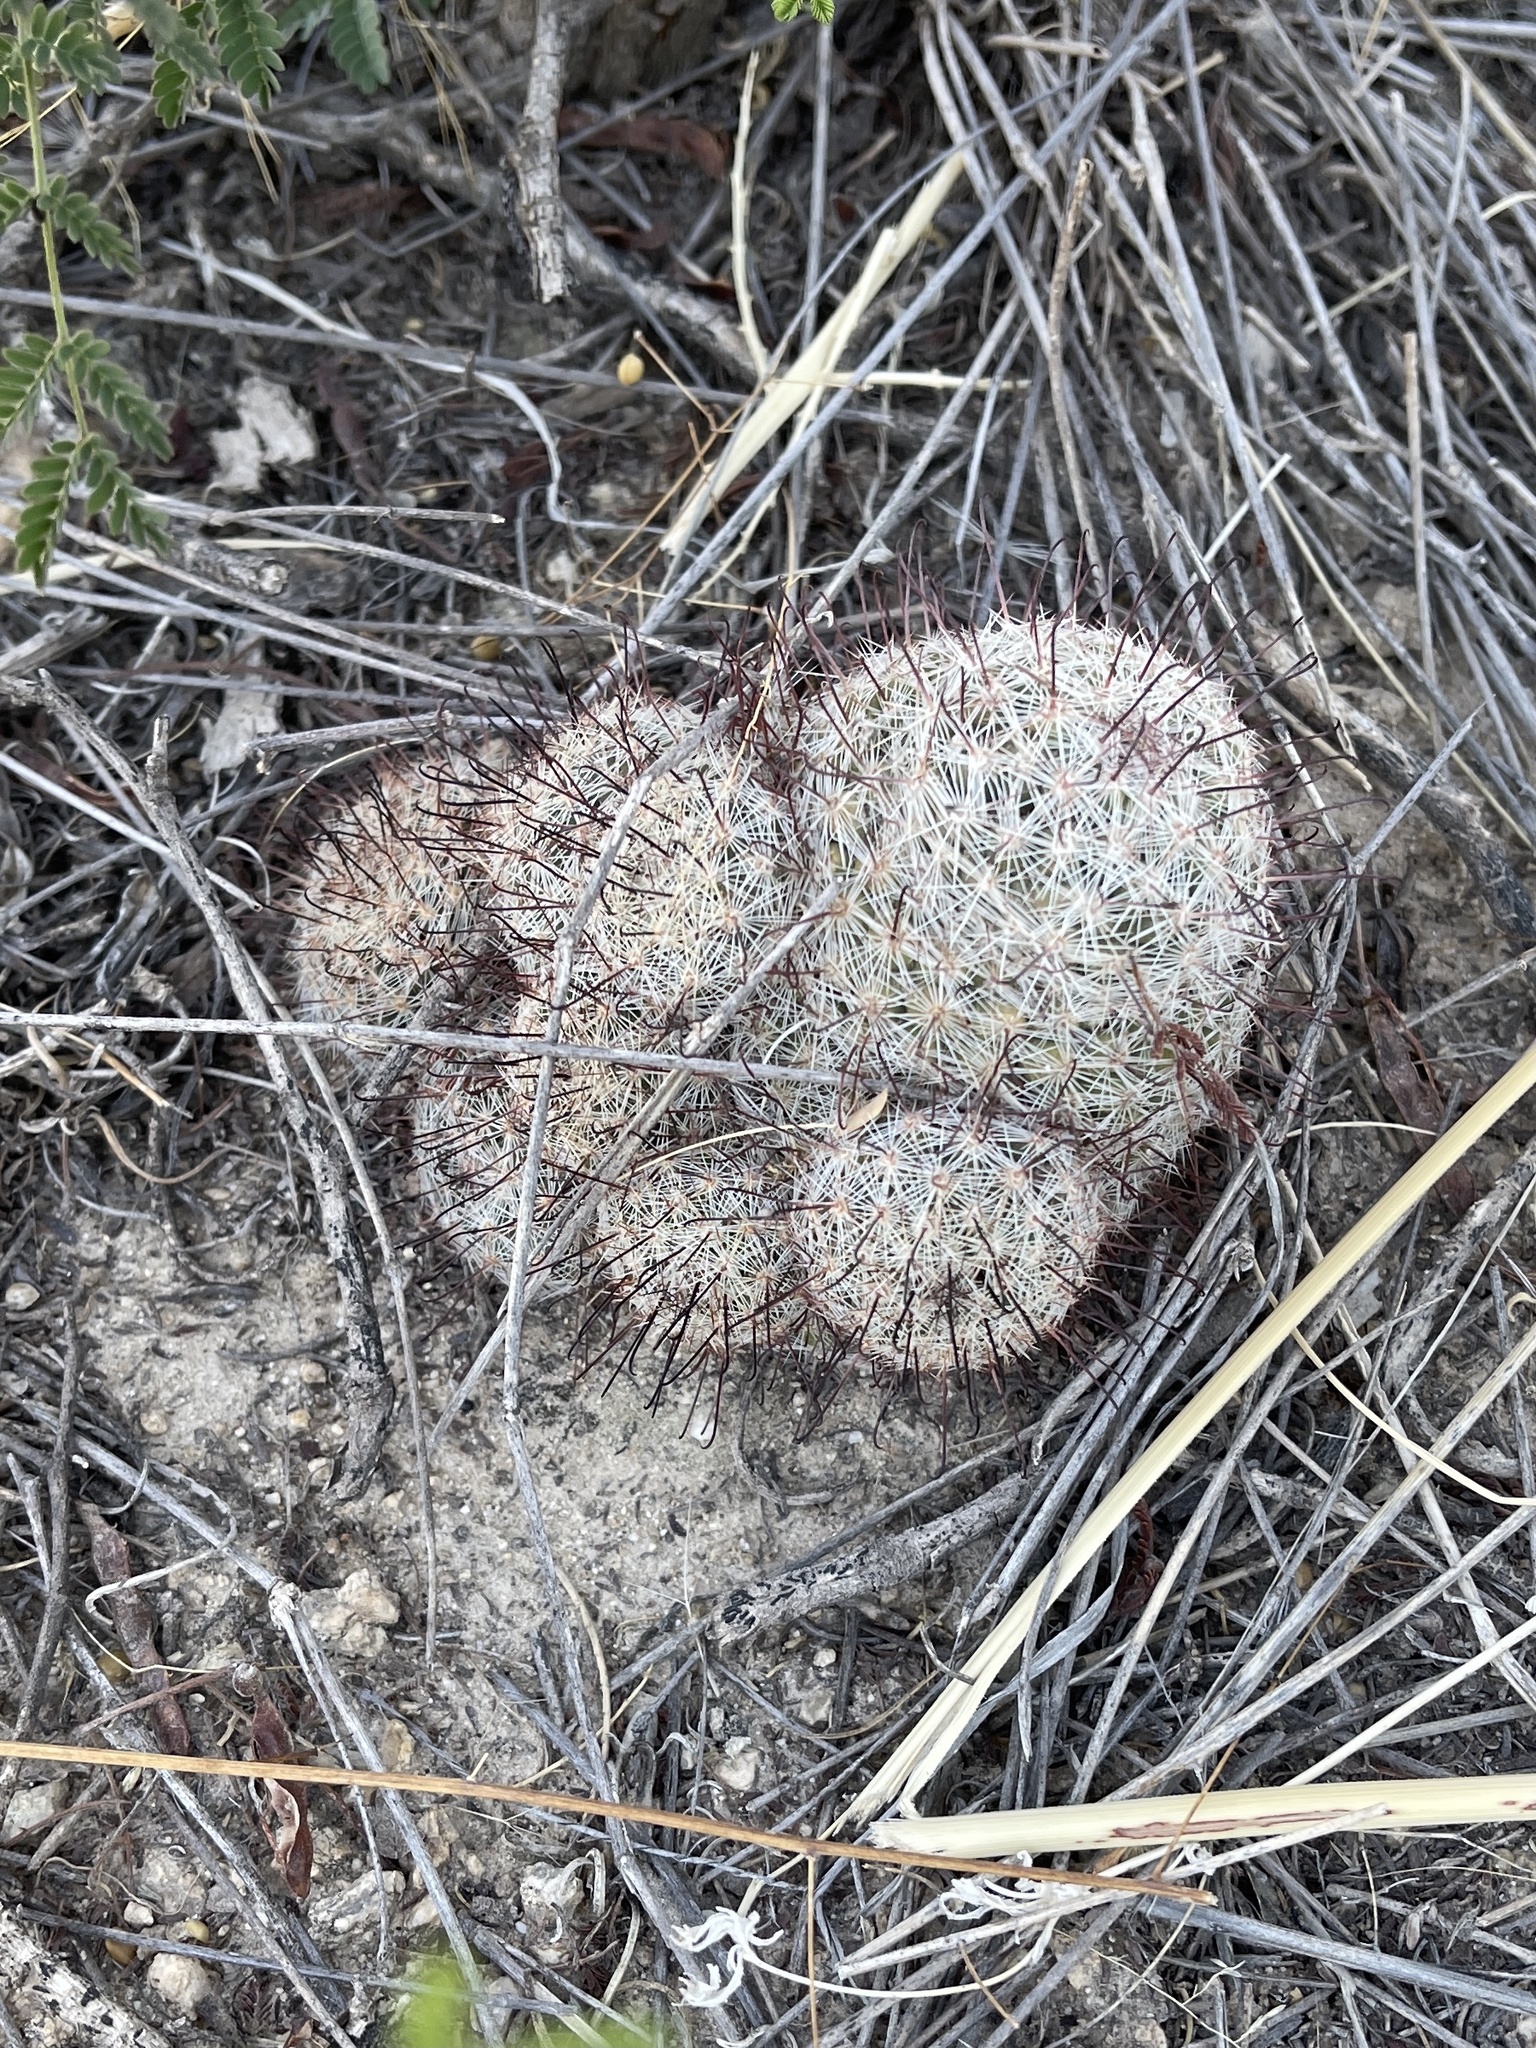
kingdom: Plantae
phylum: Tracheophyta
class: Magnoliopsida
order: Caryophyllales
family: Cactaceae
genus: Cochemiea
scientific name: Cochemiea grahamii
